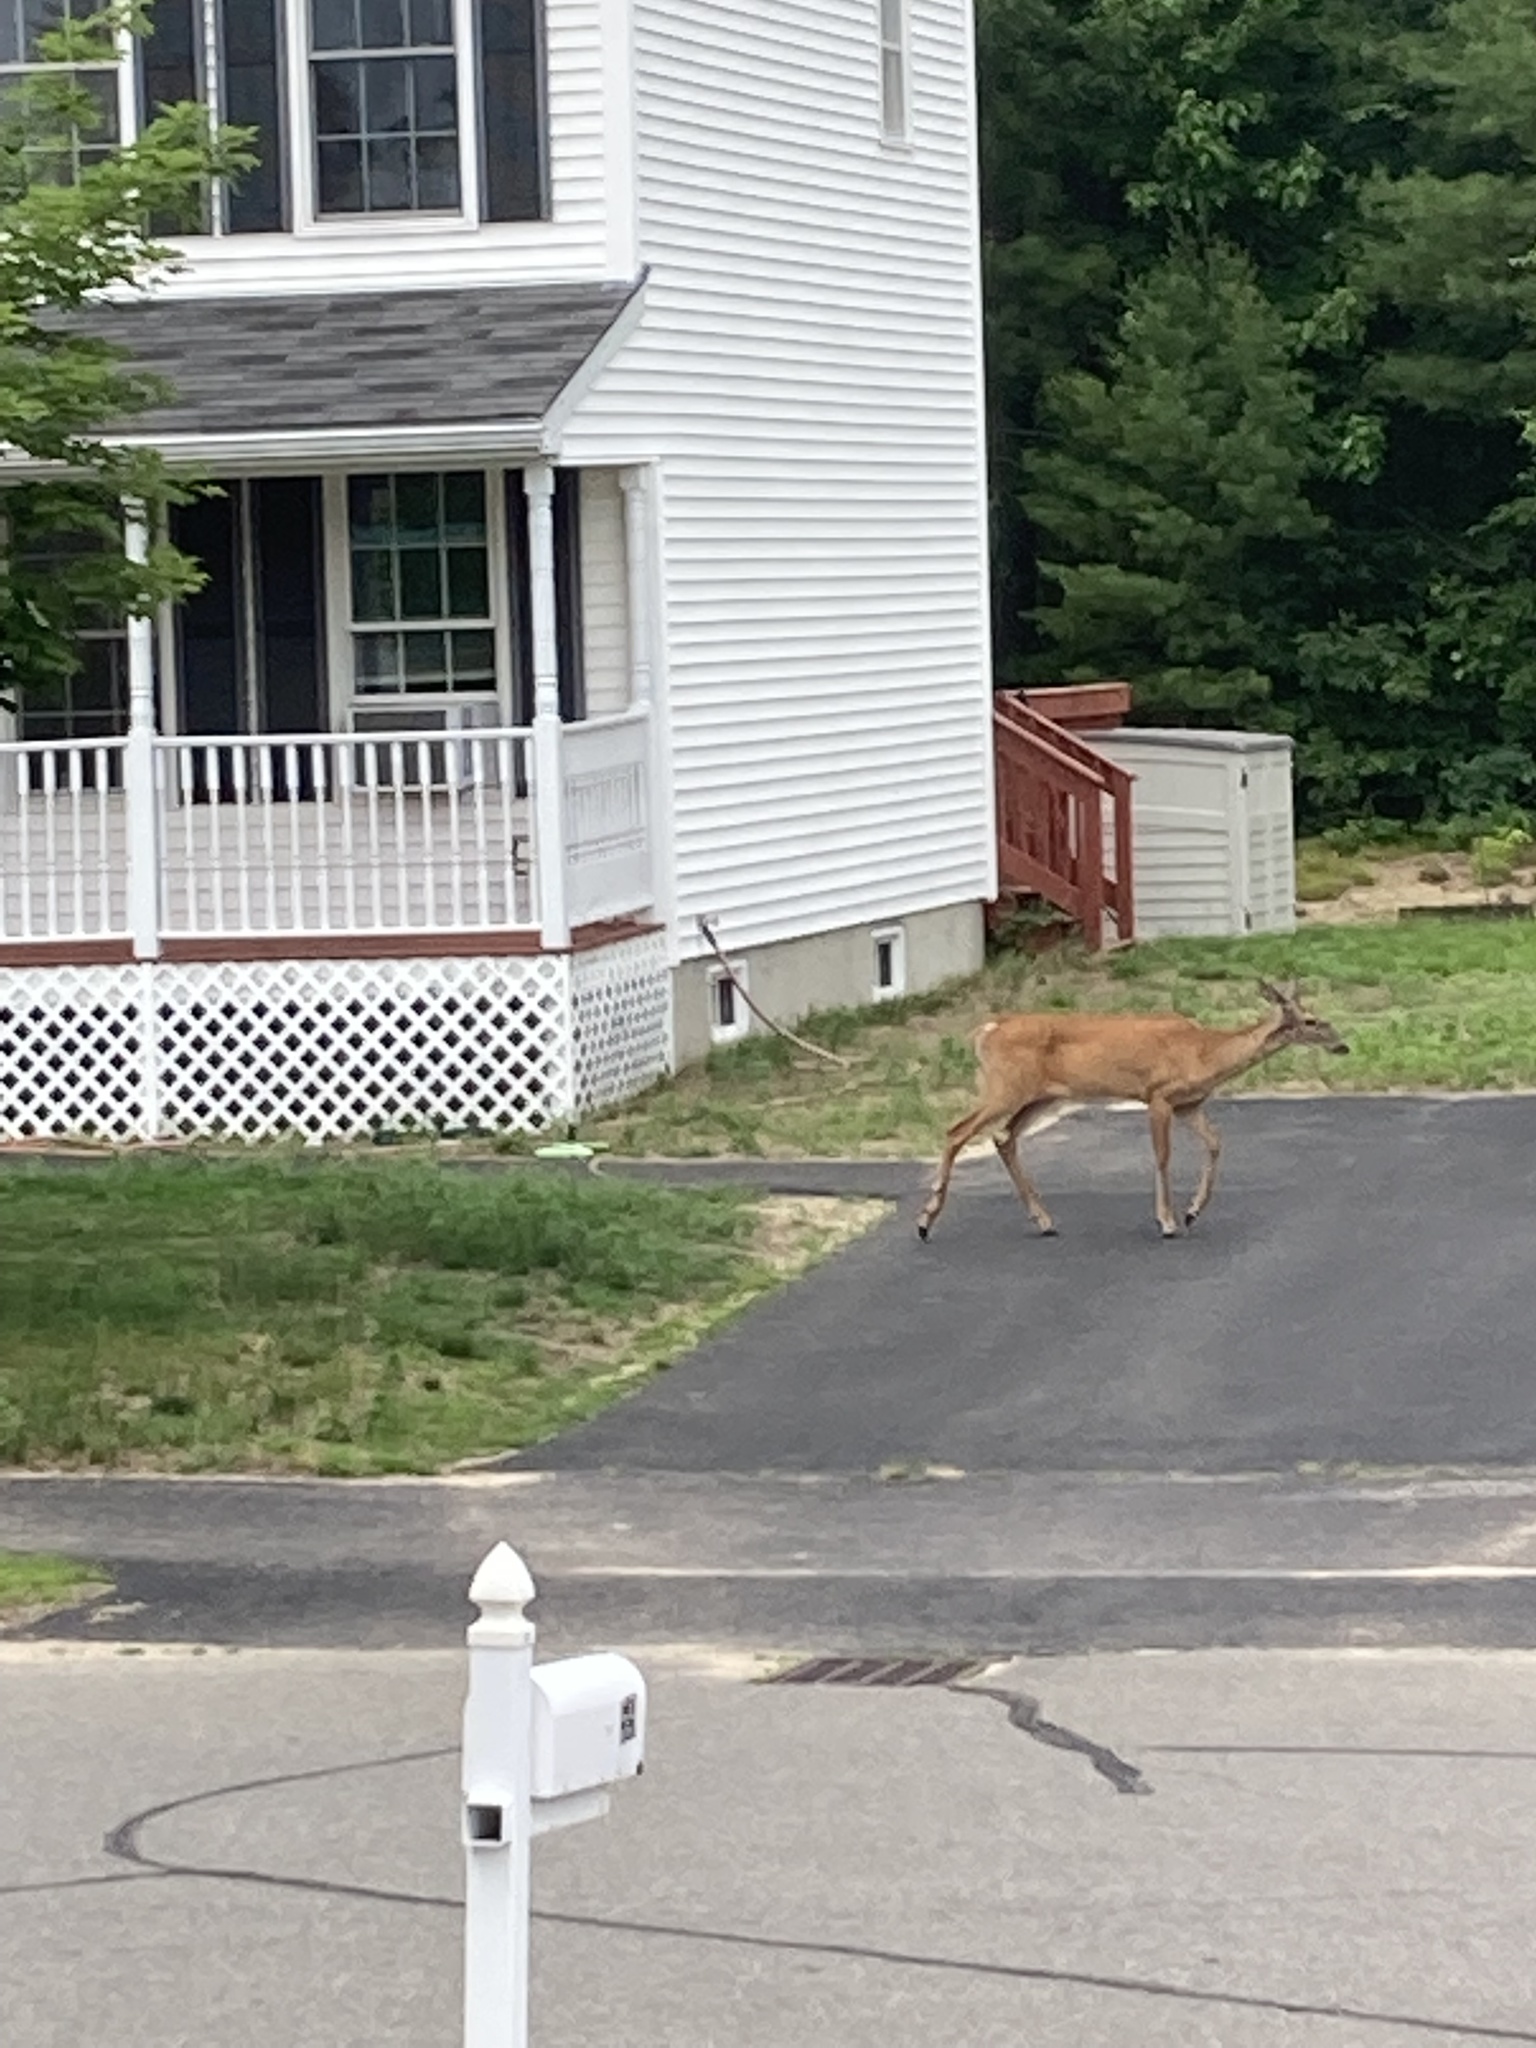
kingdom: Animalia
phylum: Chordata
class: Mammalia
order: Artiodactyla
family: Cervidae
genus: Odocoileus
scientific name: Odocoileus virginianus
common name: White-tailed deer
